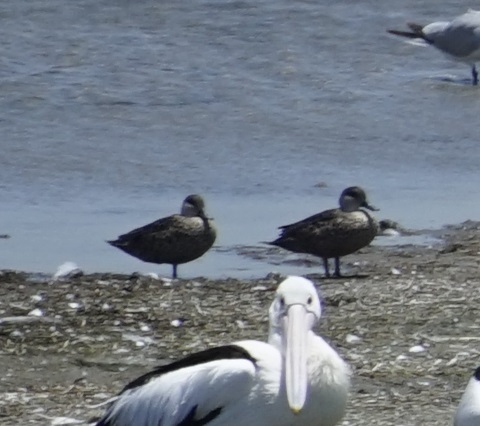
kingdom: Animalia
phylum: Chordata
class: Aves
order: Anseriformes
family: Anatidae
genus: Anas
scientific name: Anas gracilis
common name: Grey teal
